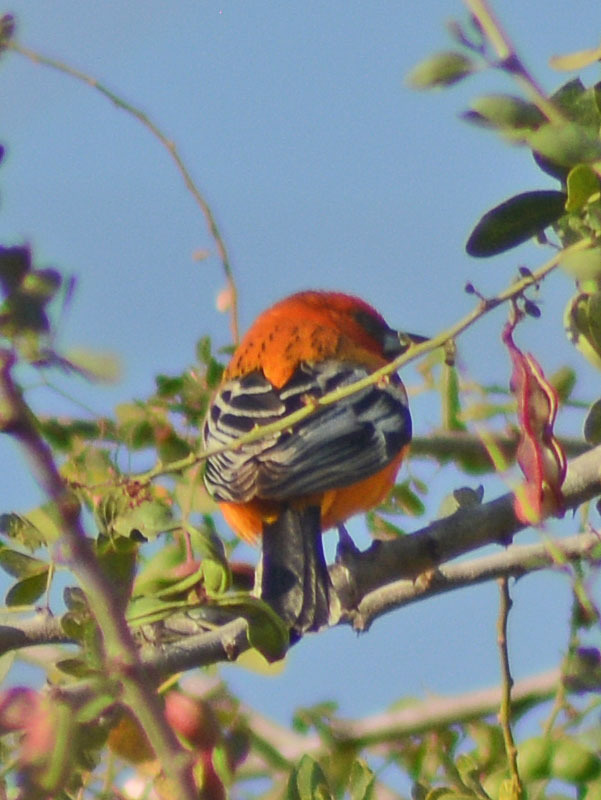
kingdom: Animalia
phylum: Chordata
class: Aves
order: Passeriformes
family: Icteridae
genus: Icterus
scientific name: Icterus pustulatus
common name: Streak-backed oriole
